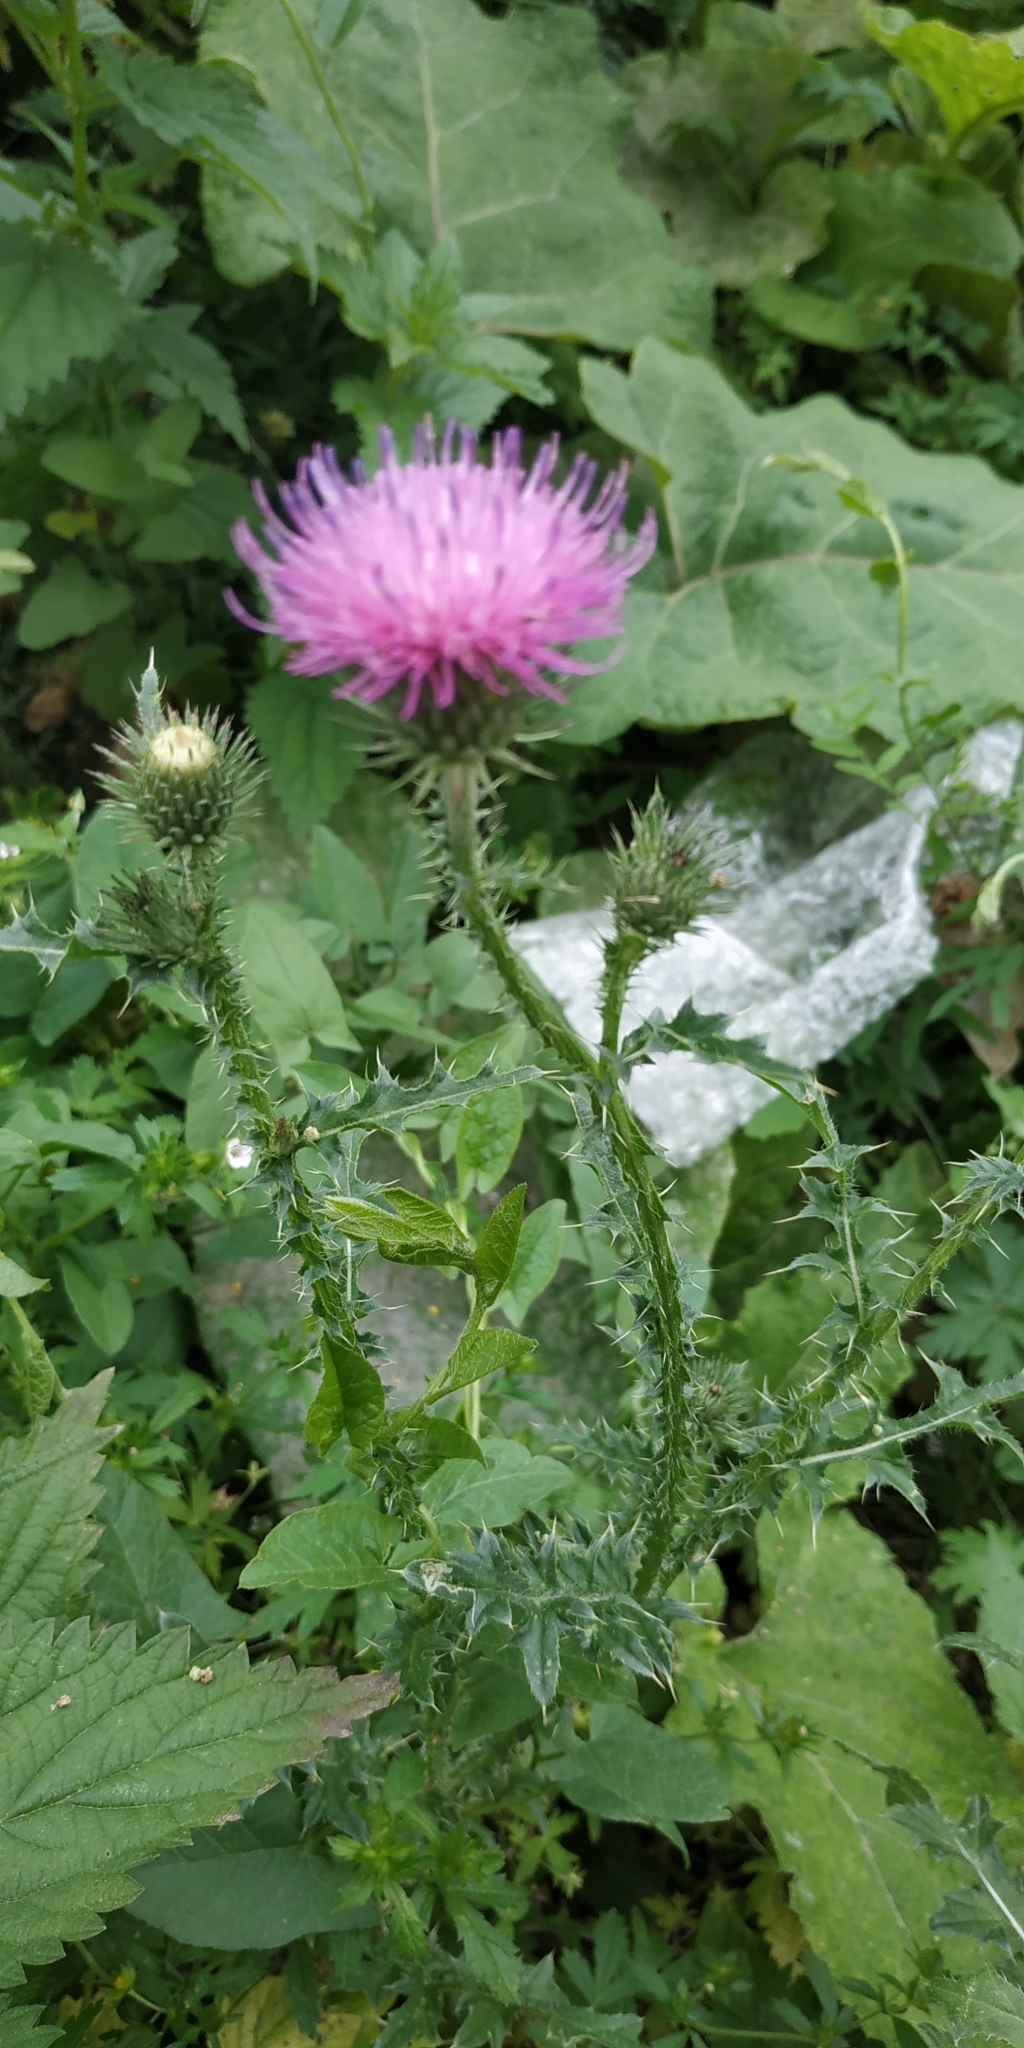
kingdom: Plantae
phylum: Tracheophyta
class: Magnoliopsida
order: Asterales
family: Asteraceae
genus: Carduus
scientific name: Carduus acanthoides
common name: Plumeless thistle
